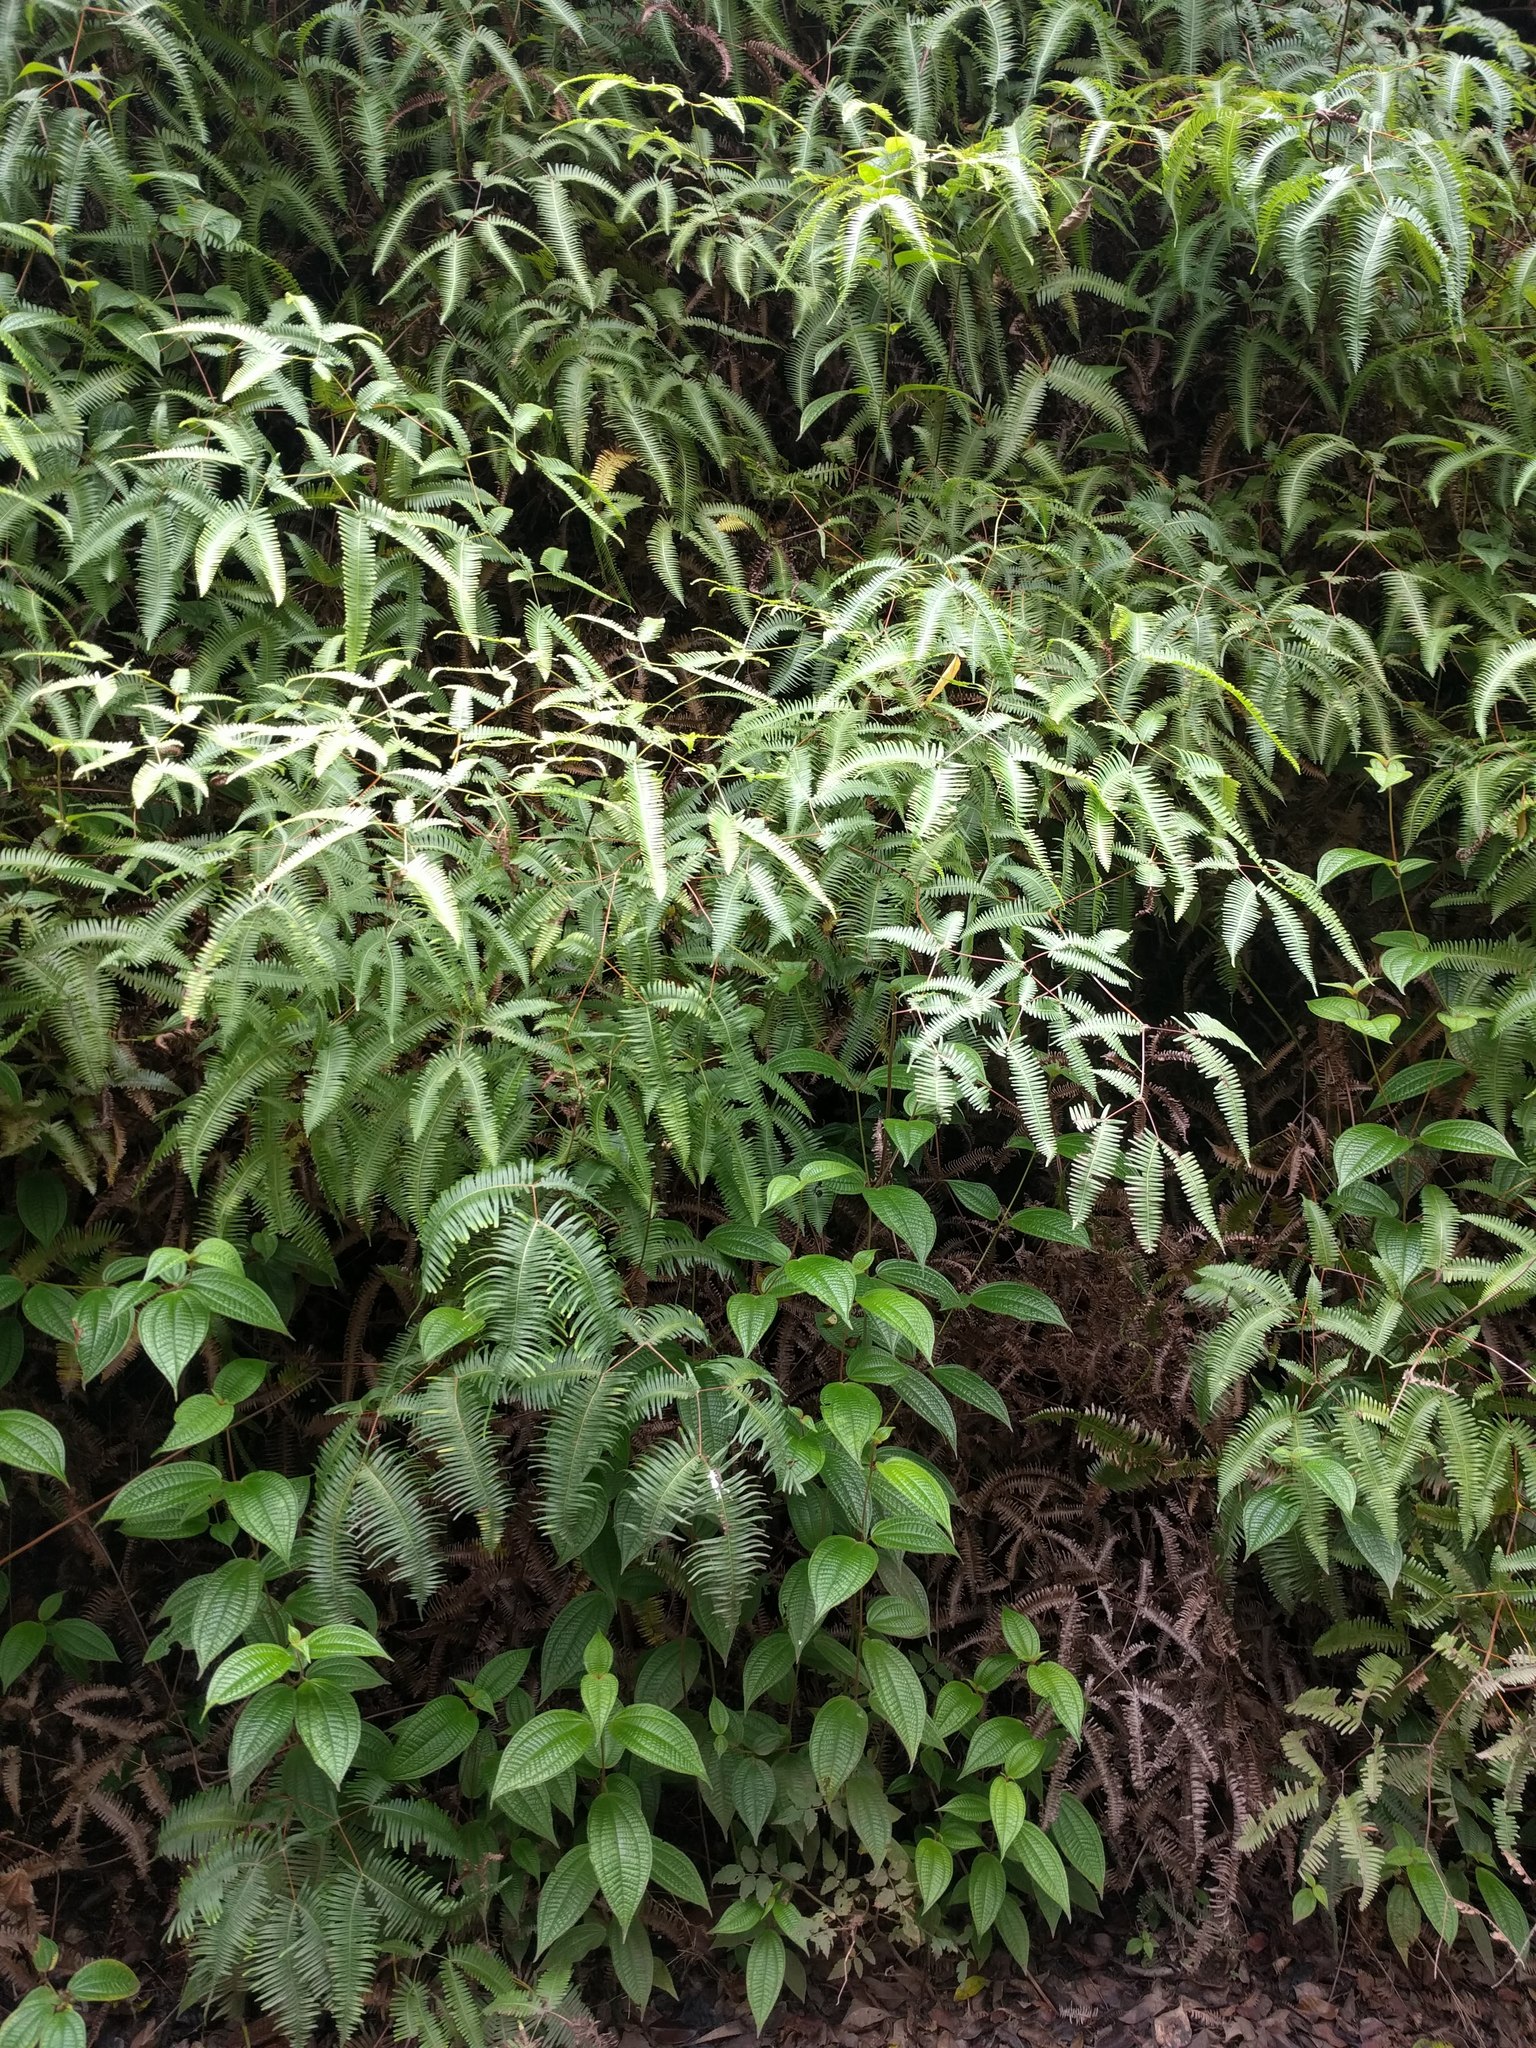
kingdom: Plantae
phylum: Tracheophyta
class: Polypodiopsida
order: Gleicheniales
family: Gleicheniaceae
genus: Dicranopteris
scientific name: Dicranopteris linearis
